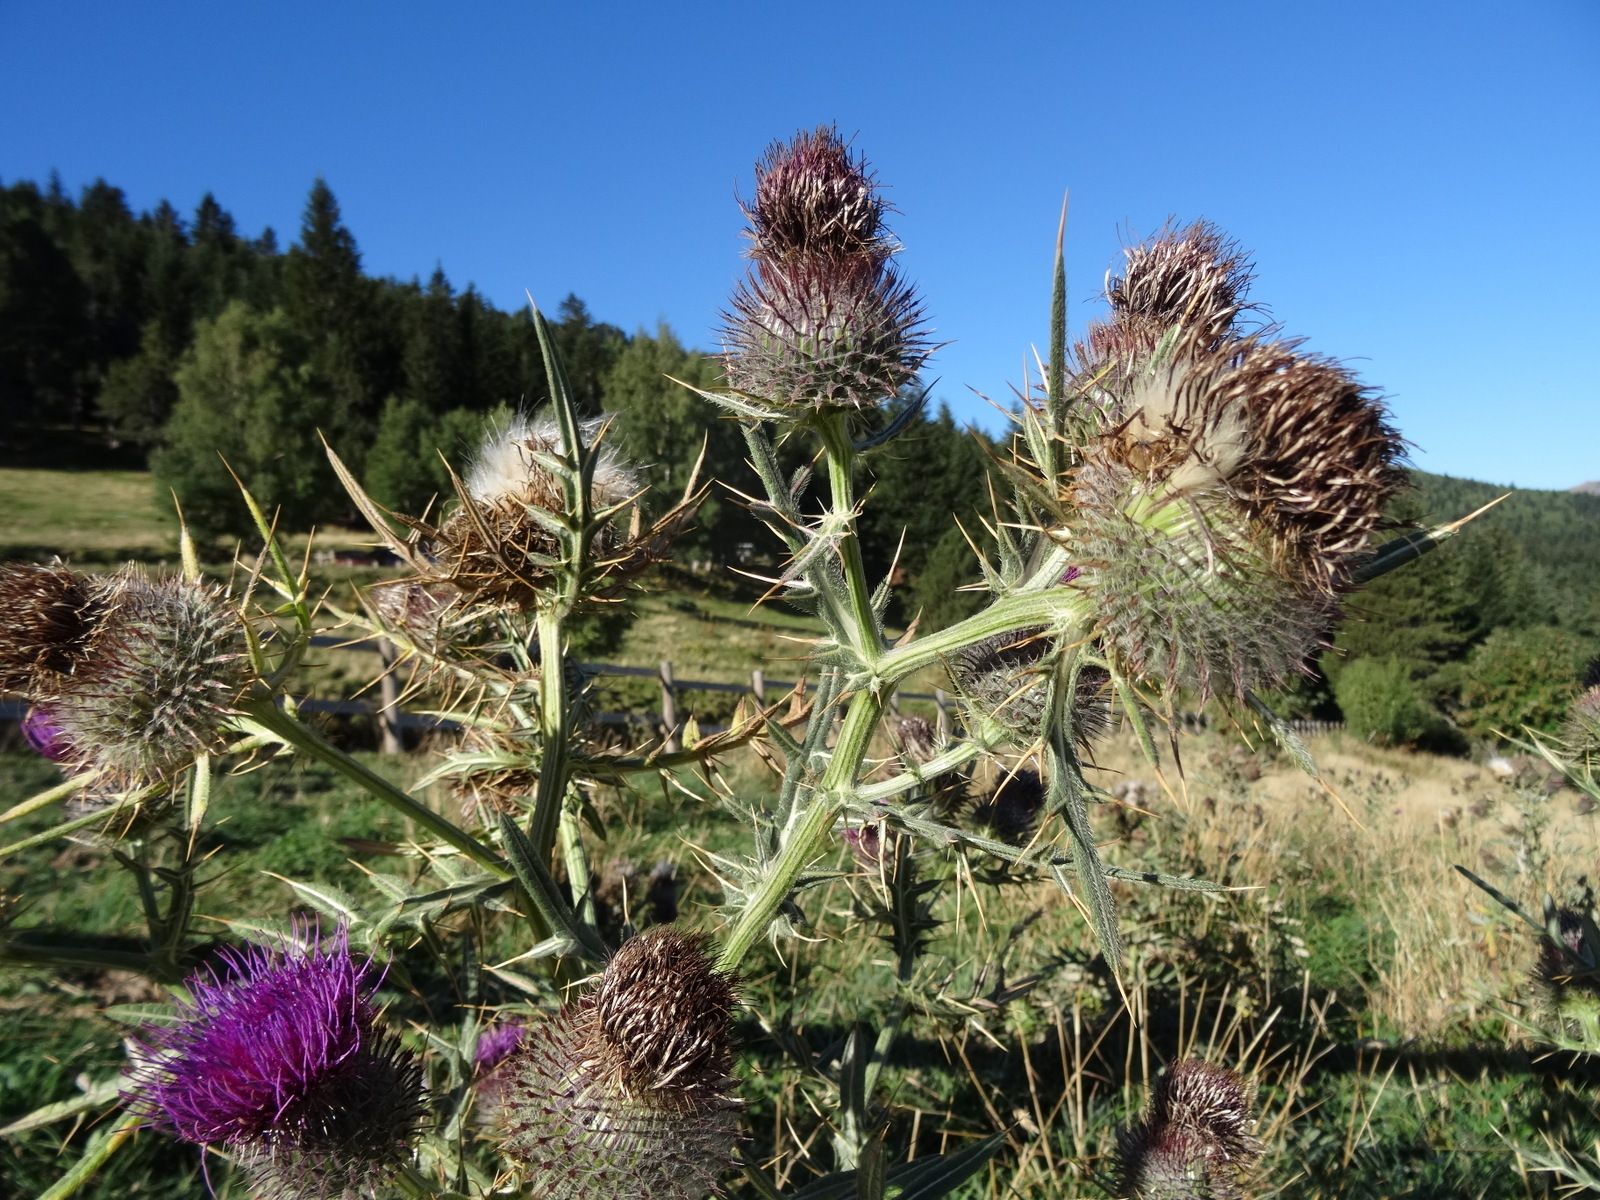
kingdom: Plantae
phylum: Tracheophyta
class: Magnoliopsida
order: Asterales
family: Asteraceae
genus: Lophiolepis
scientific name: Lophiolepis eriophora
